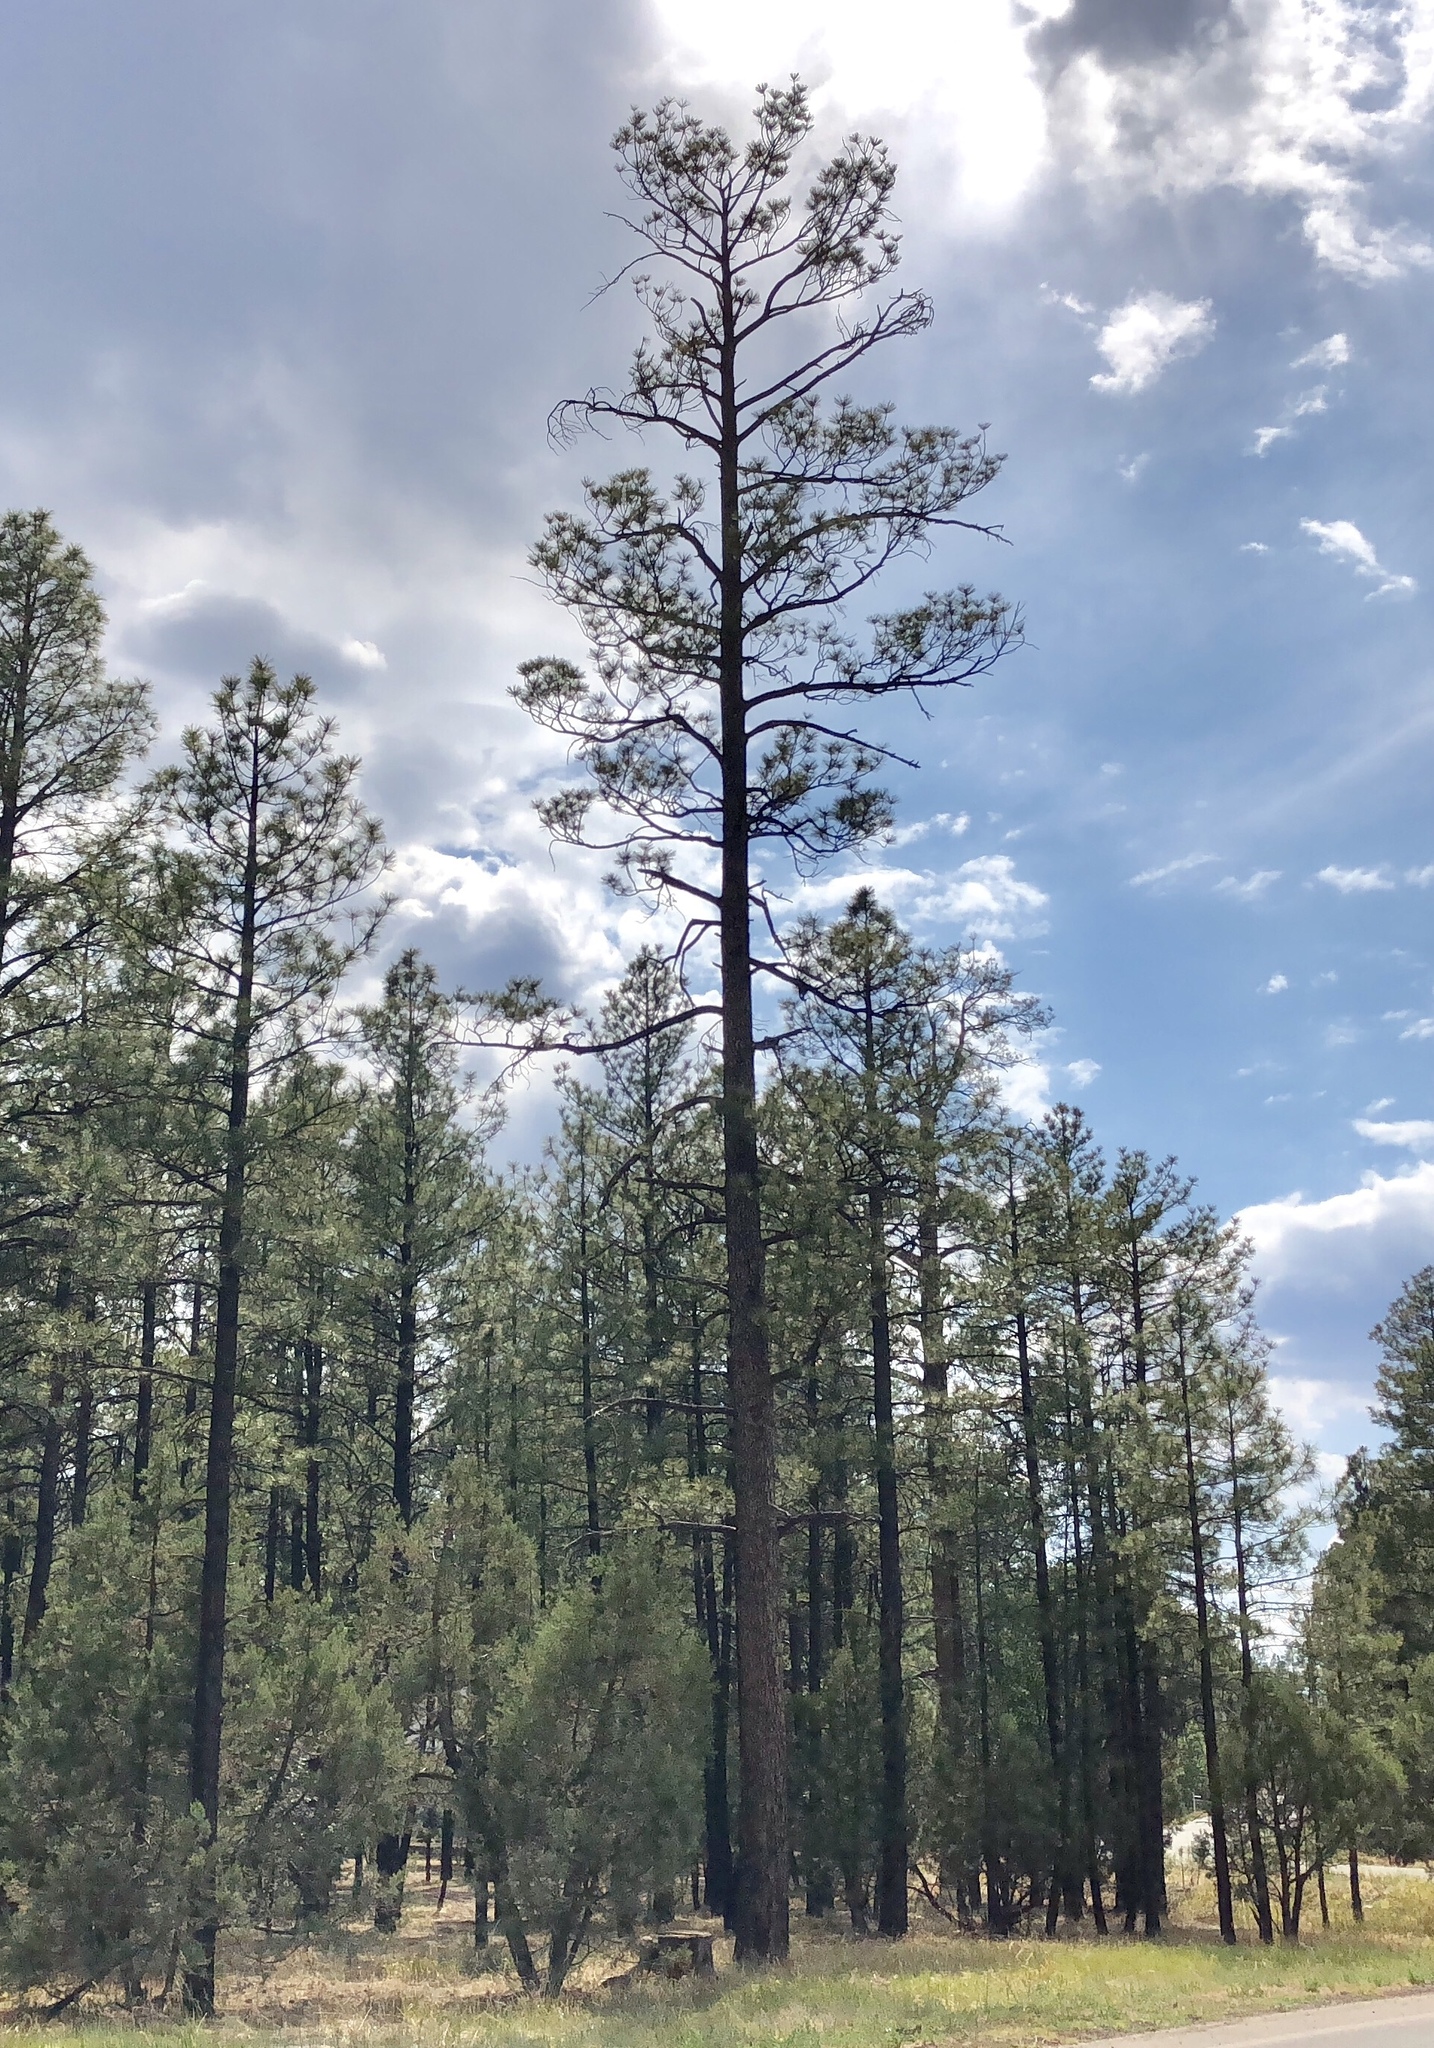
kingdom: Plantae
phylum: Tracheophyta
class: Pinopsida
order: Pinales
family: Pinaceae
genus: Pinus
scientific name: Pinus ponderosa
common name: Western yellow-pine
